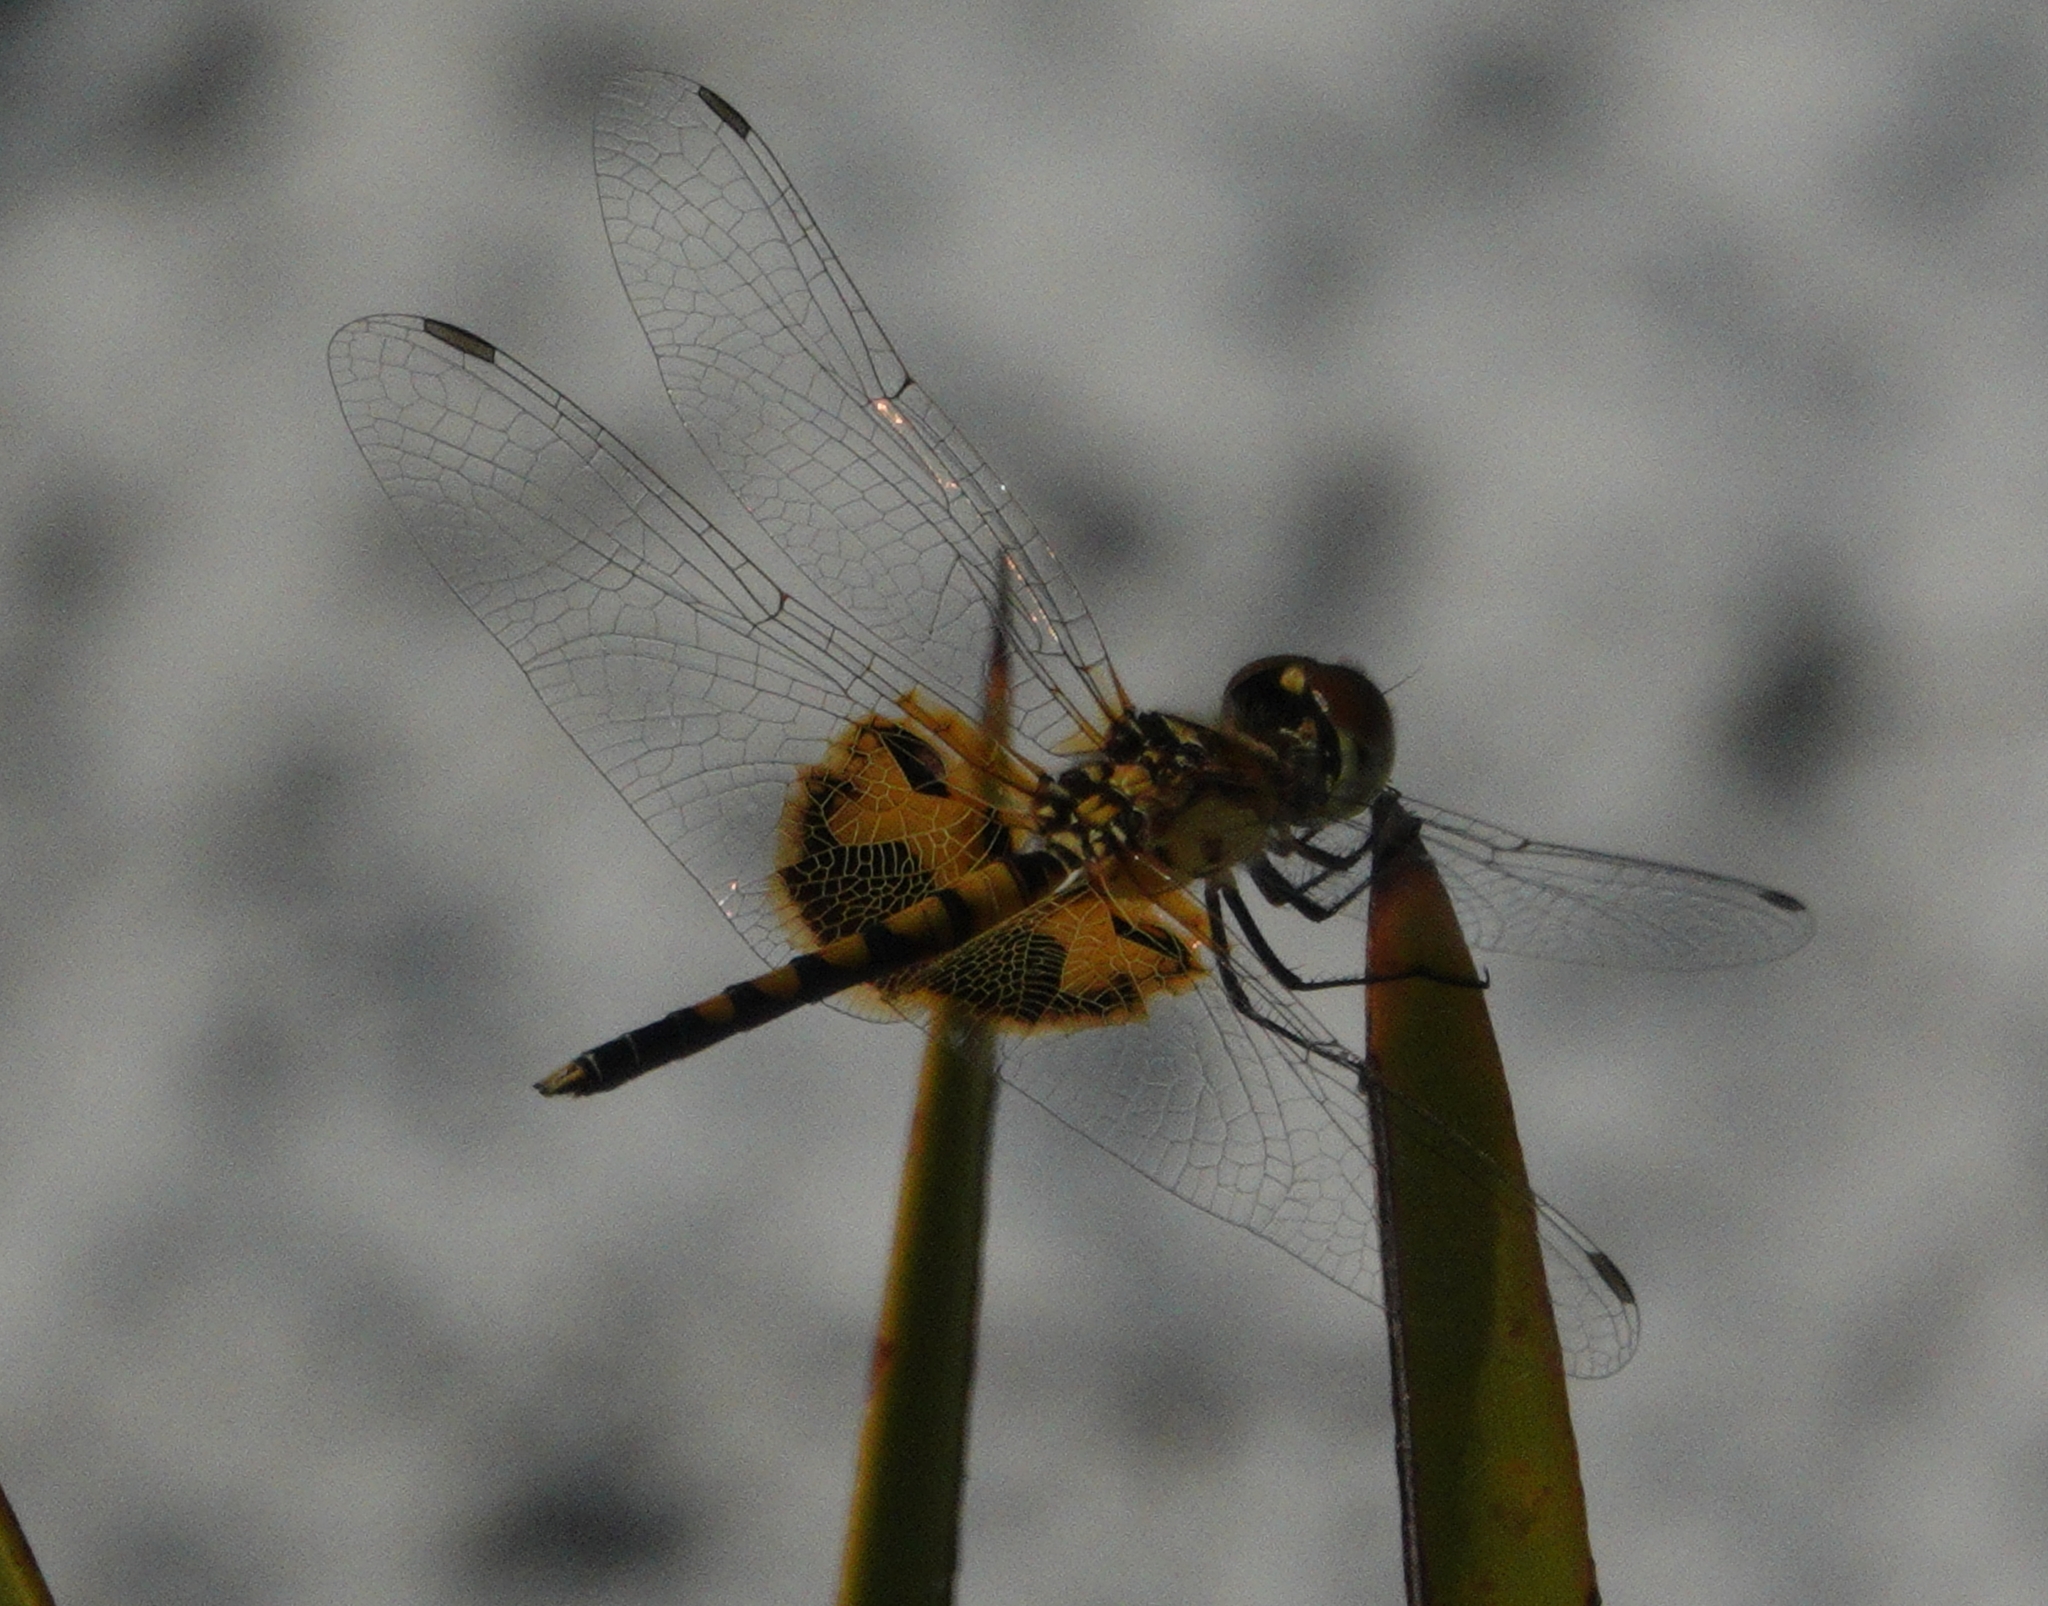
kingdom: Animalia
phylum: Arthropoda
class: Insecta
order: Odonata
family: Libellulidae
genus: Celithemis
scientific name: Celithemis amanda
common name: Amanda's pennant
